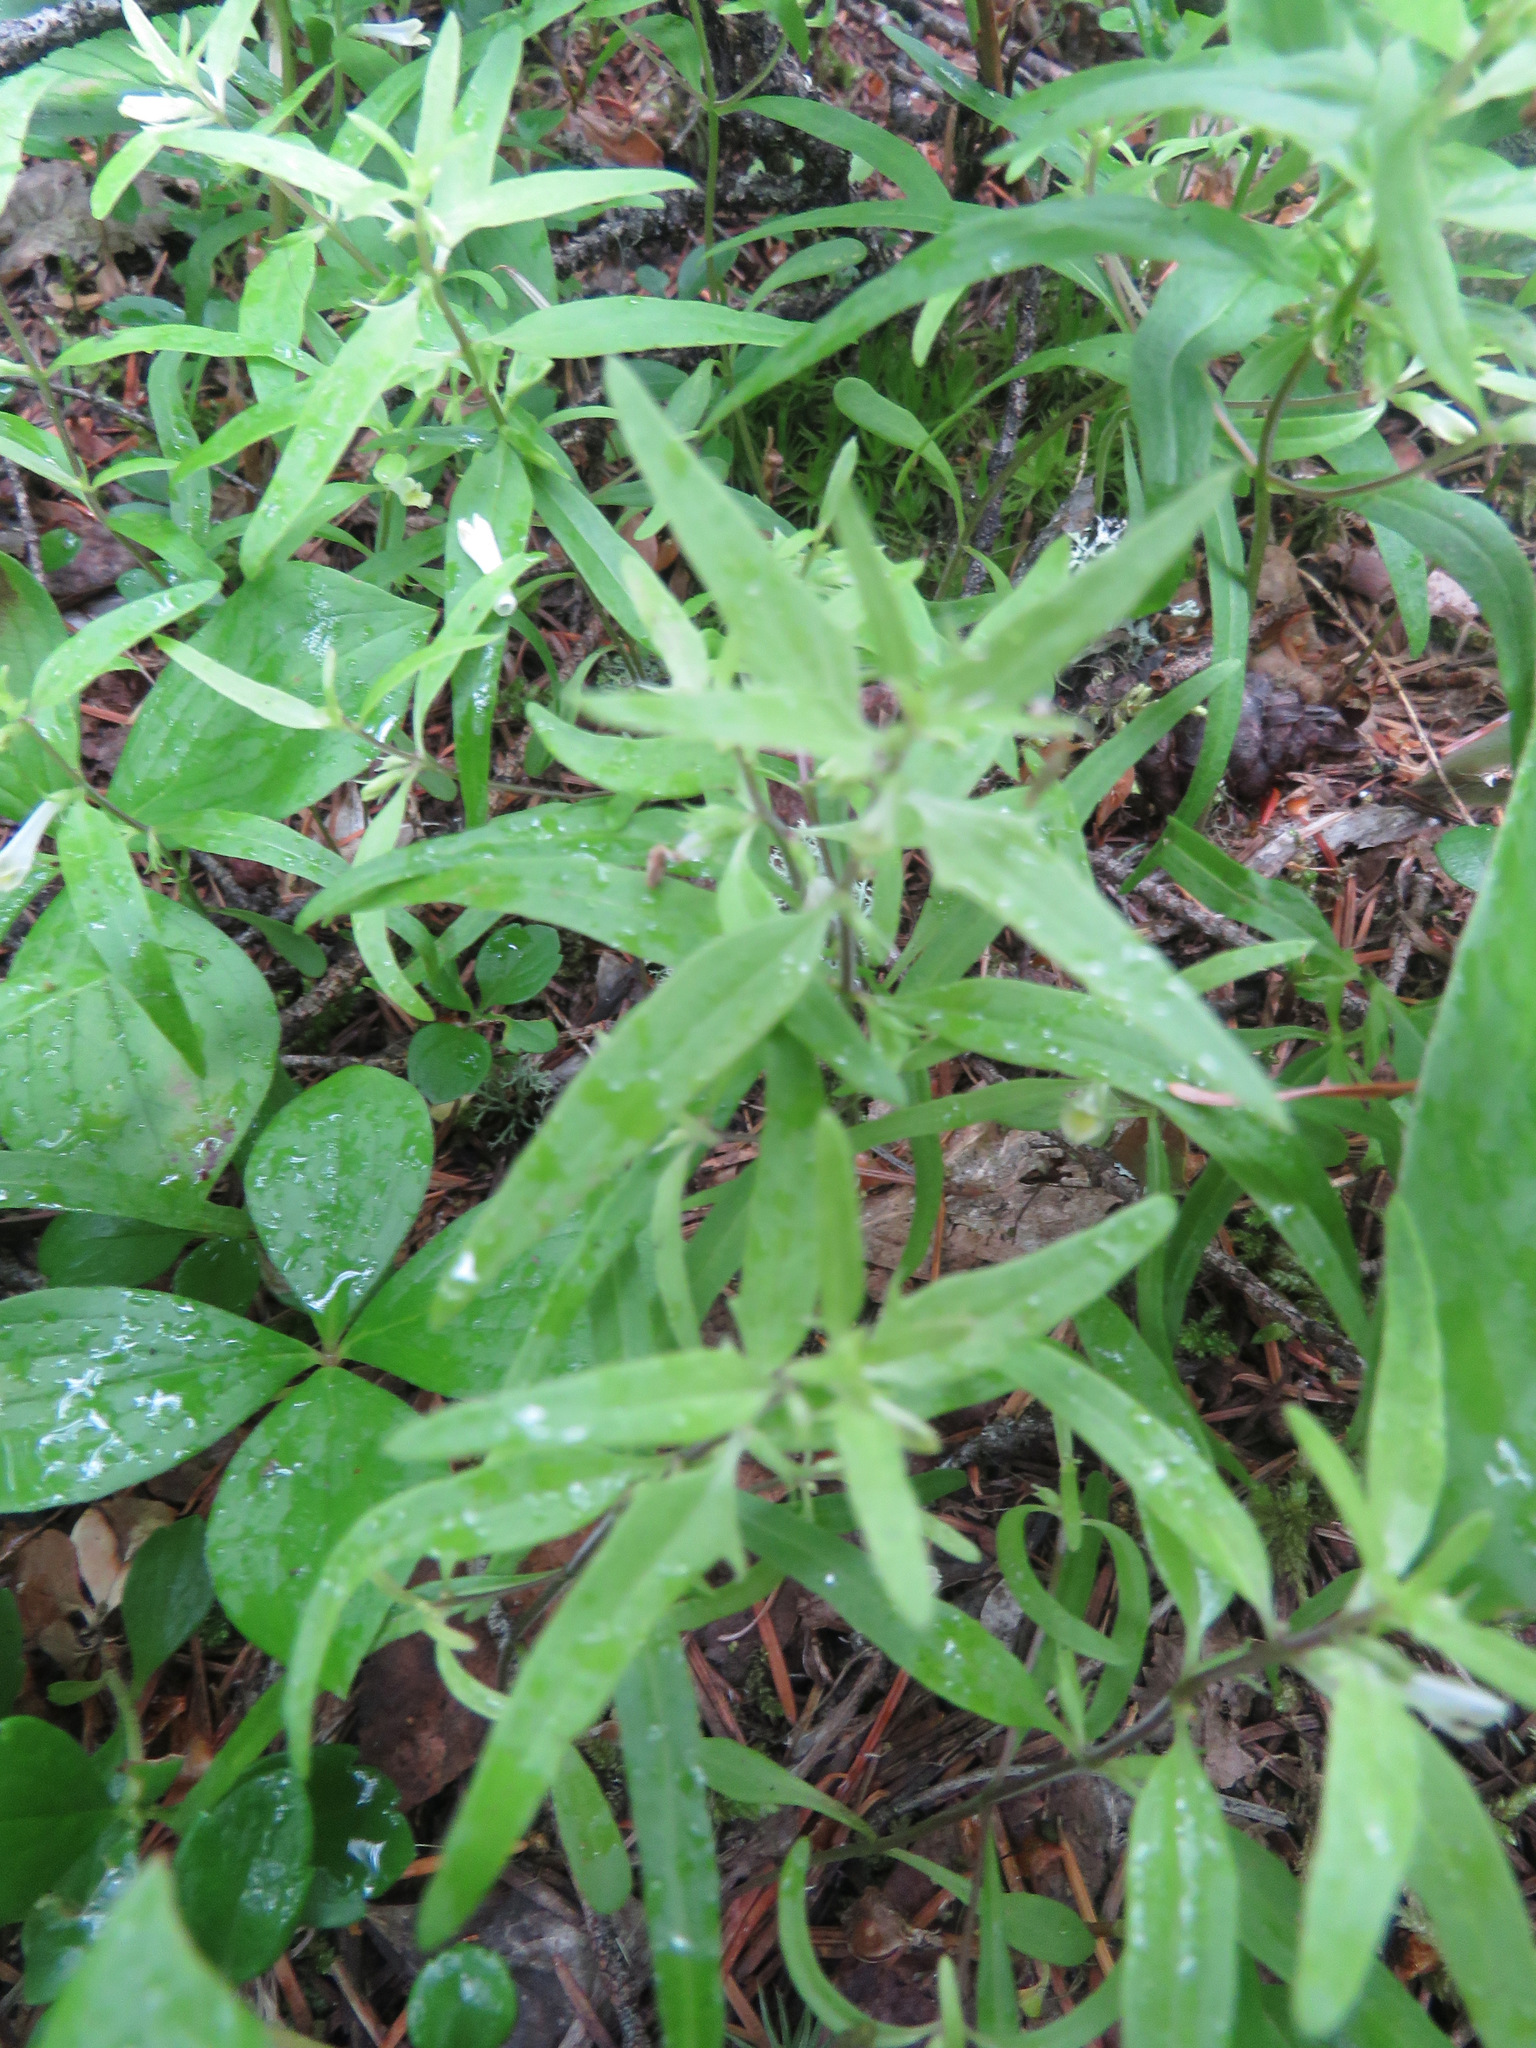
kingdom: Plantae
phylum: Tracheophyta
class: Magnoliopsida
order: Lamiales
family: Orobanchaceae
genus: Melampyrum
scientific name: Melampyrum lineare
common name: American cow-wheat
